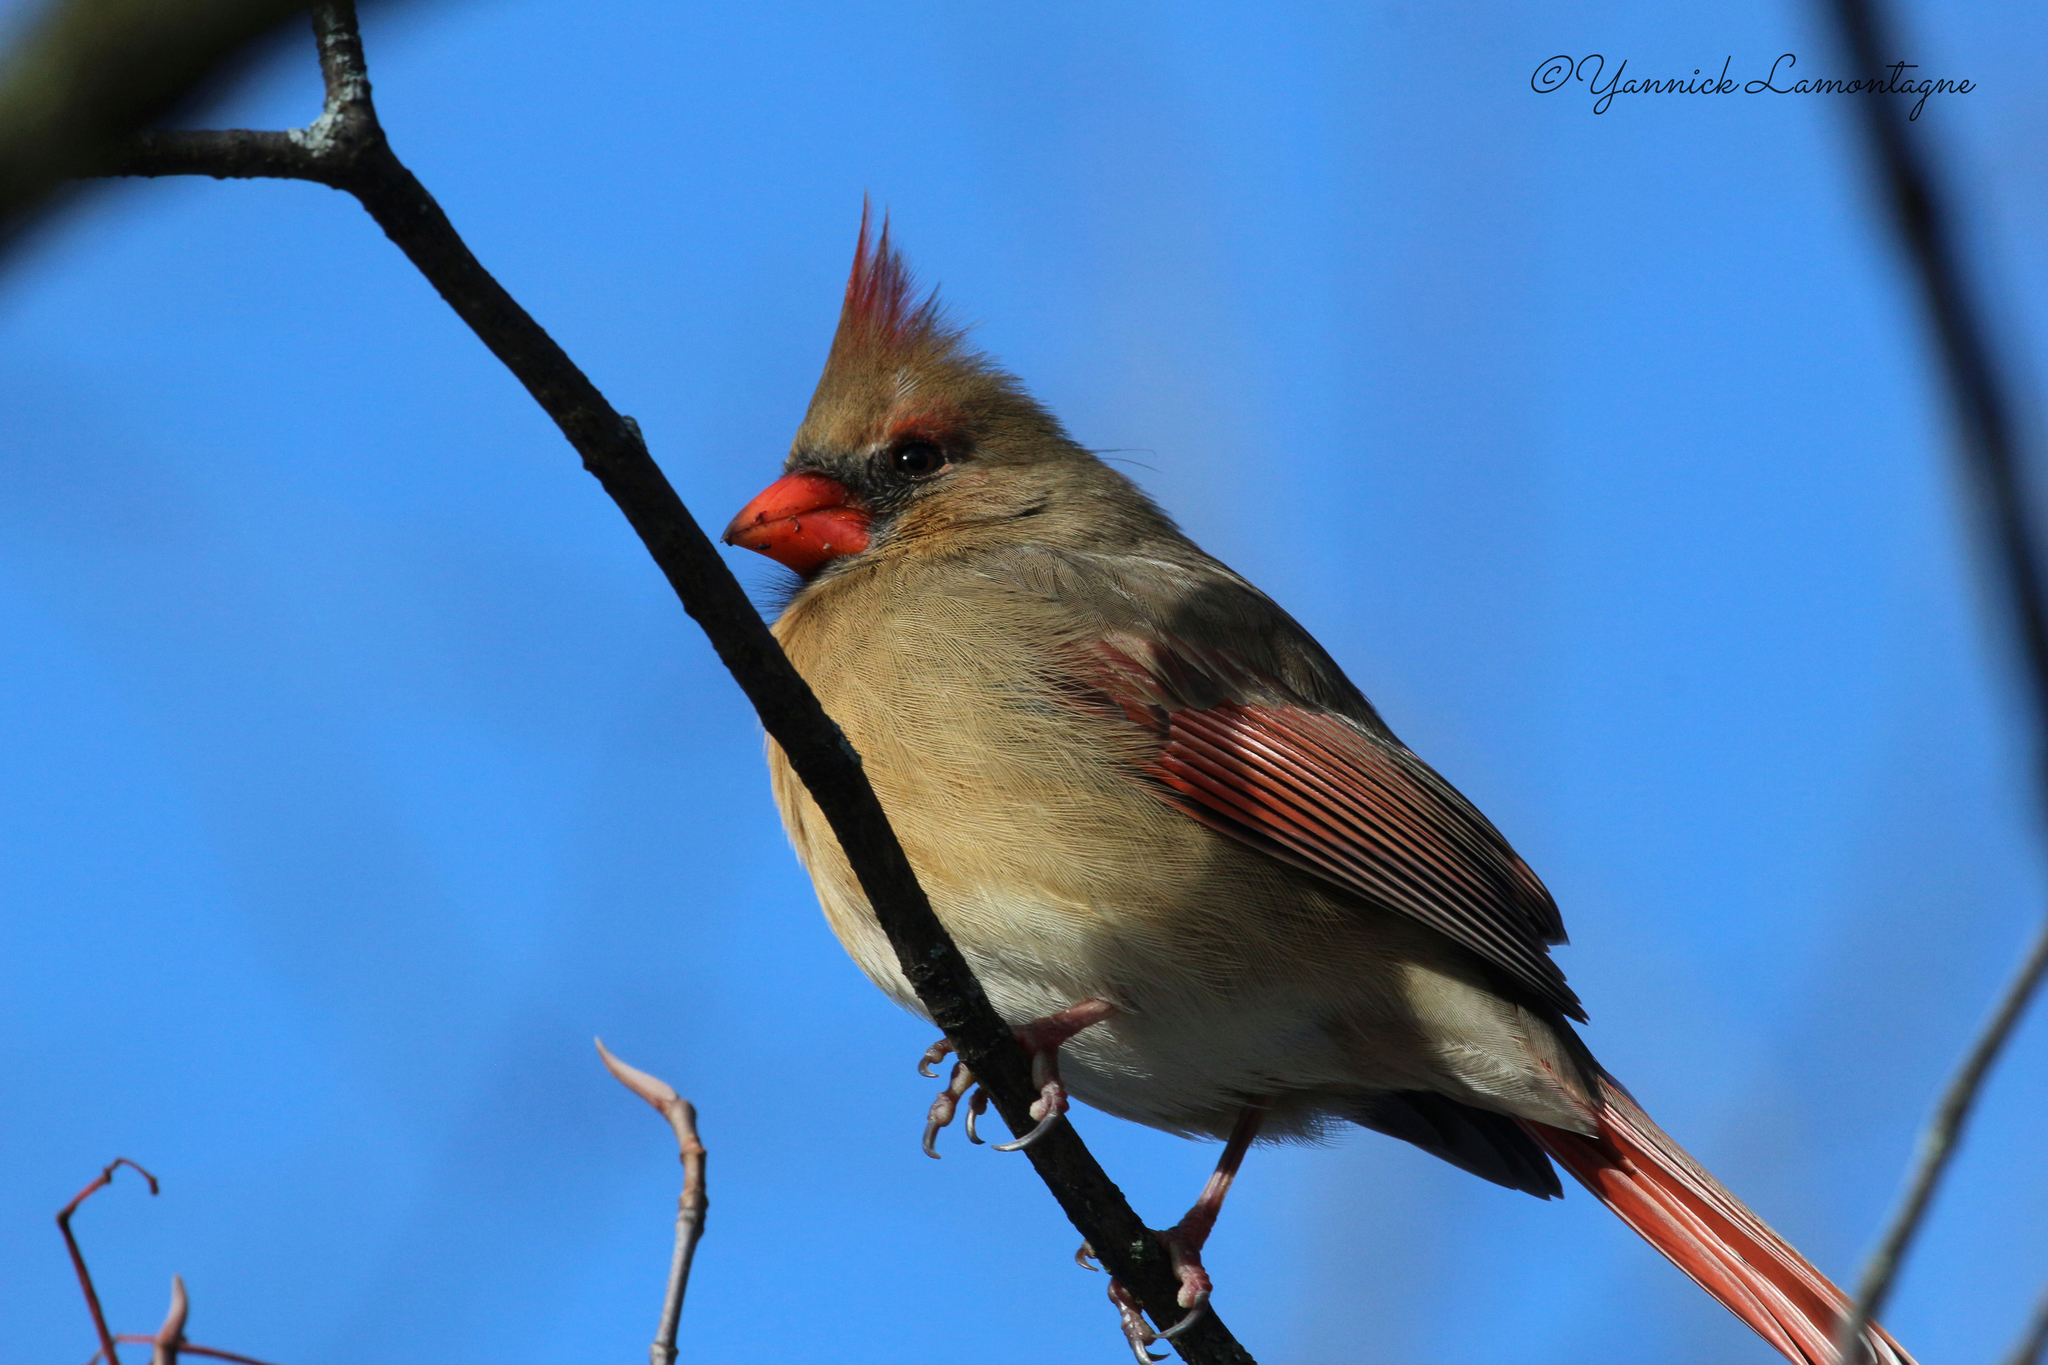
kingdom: Animalia
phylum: Chordata
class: Aves
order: Passeriformes
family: Cardinalidae
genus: Cardinalis
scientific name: Cardinalis cardinalis
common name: Northern cardinal
